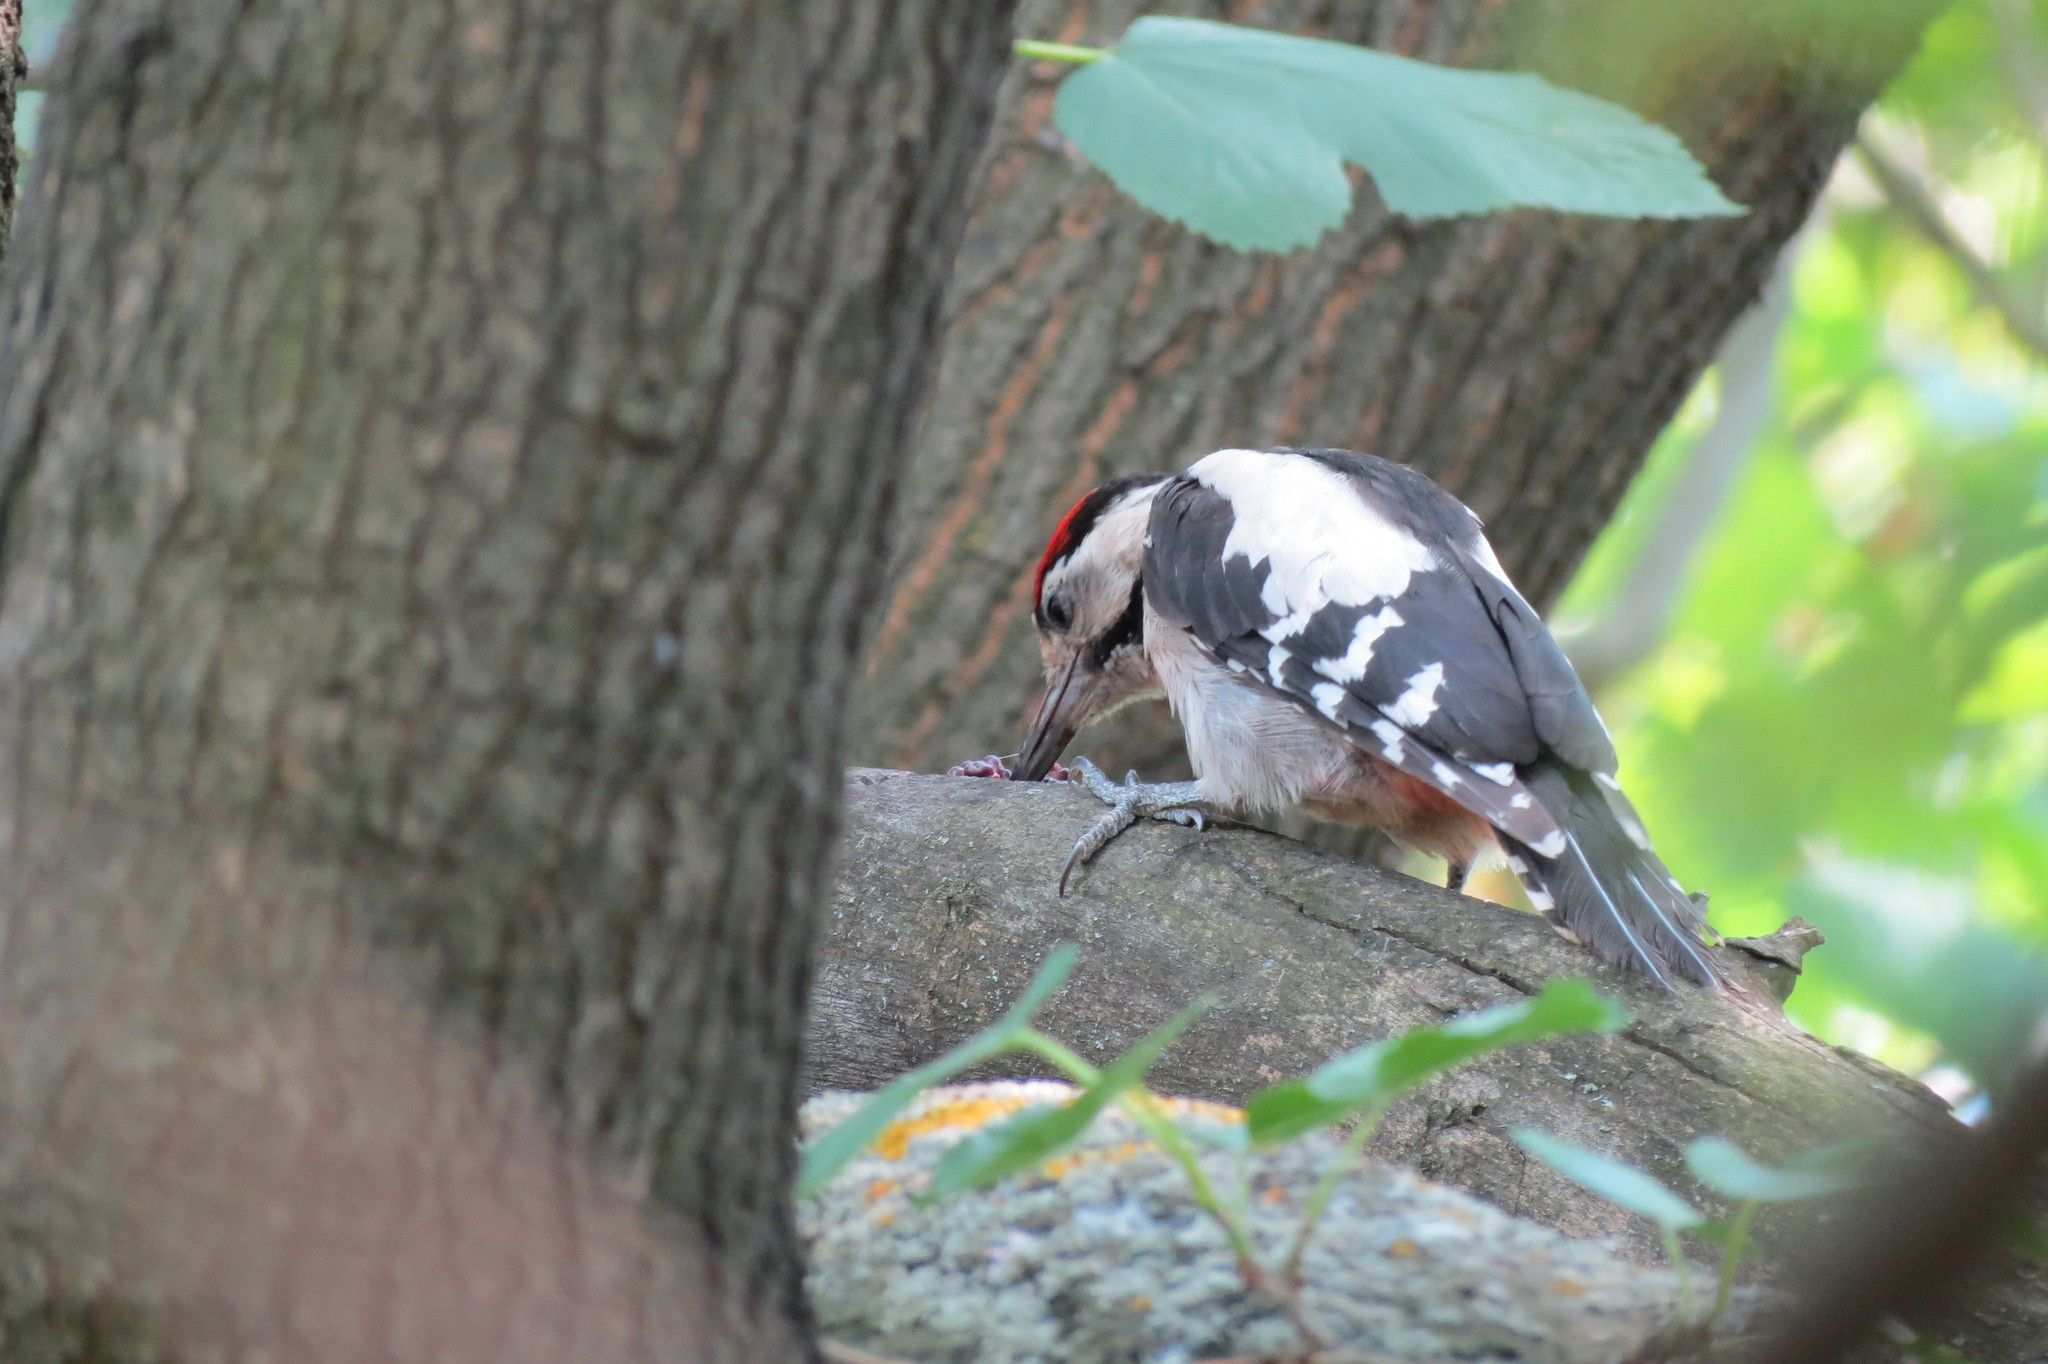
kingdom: Animalia
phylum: Chordata
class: Aves
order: Piciformes
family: Picidae
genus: Dendrocopos
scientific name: Dendrocopos syriacus
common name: Syrian woodpecker
